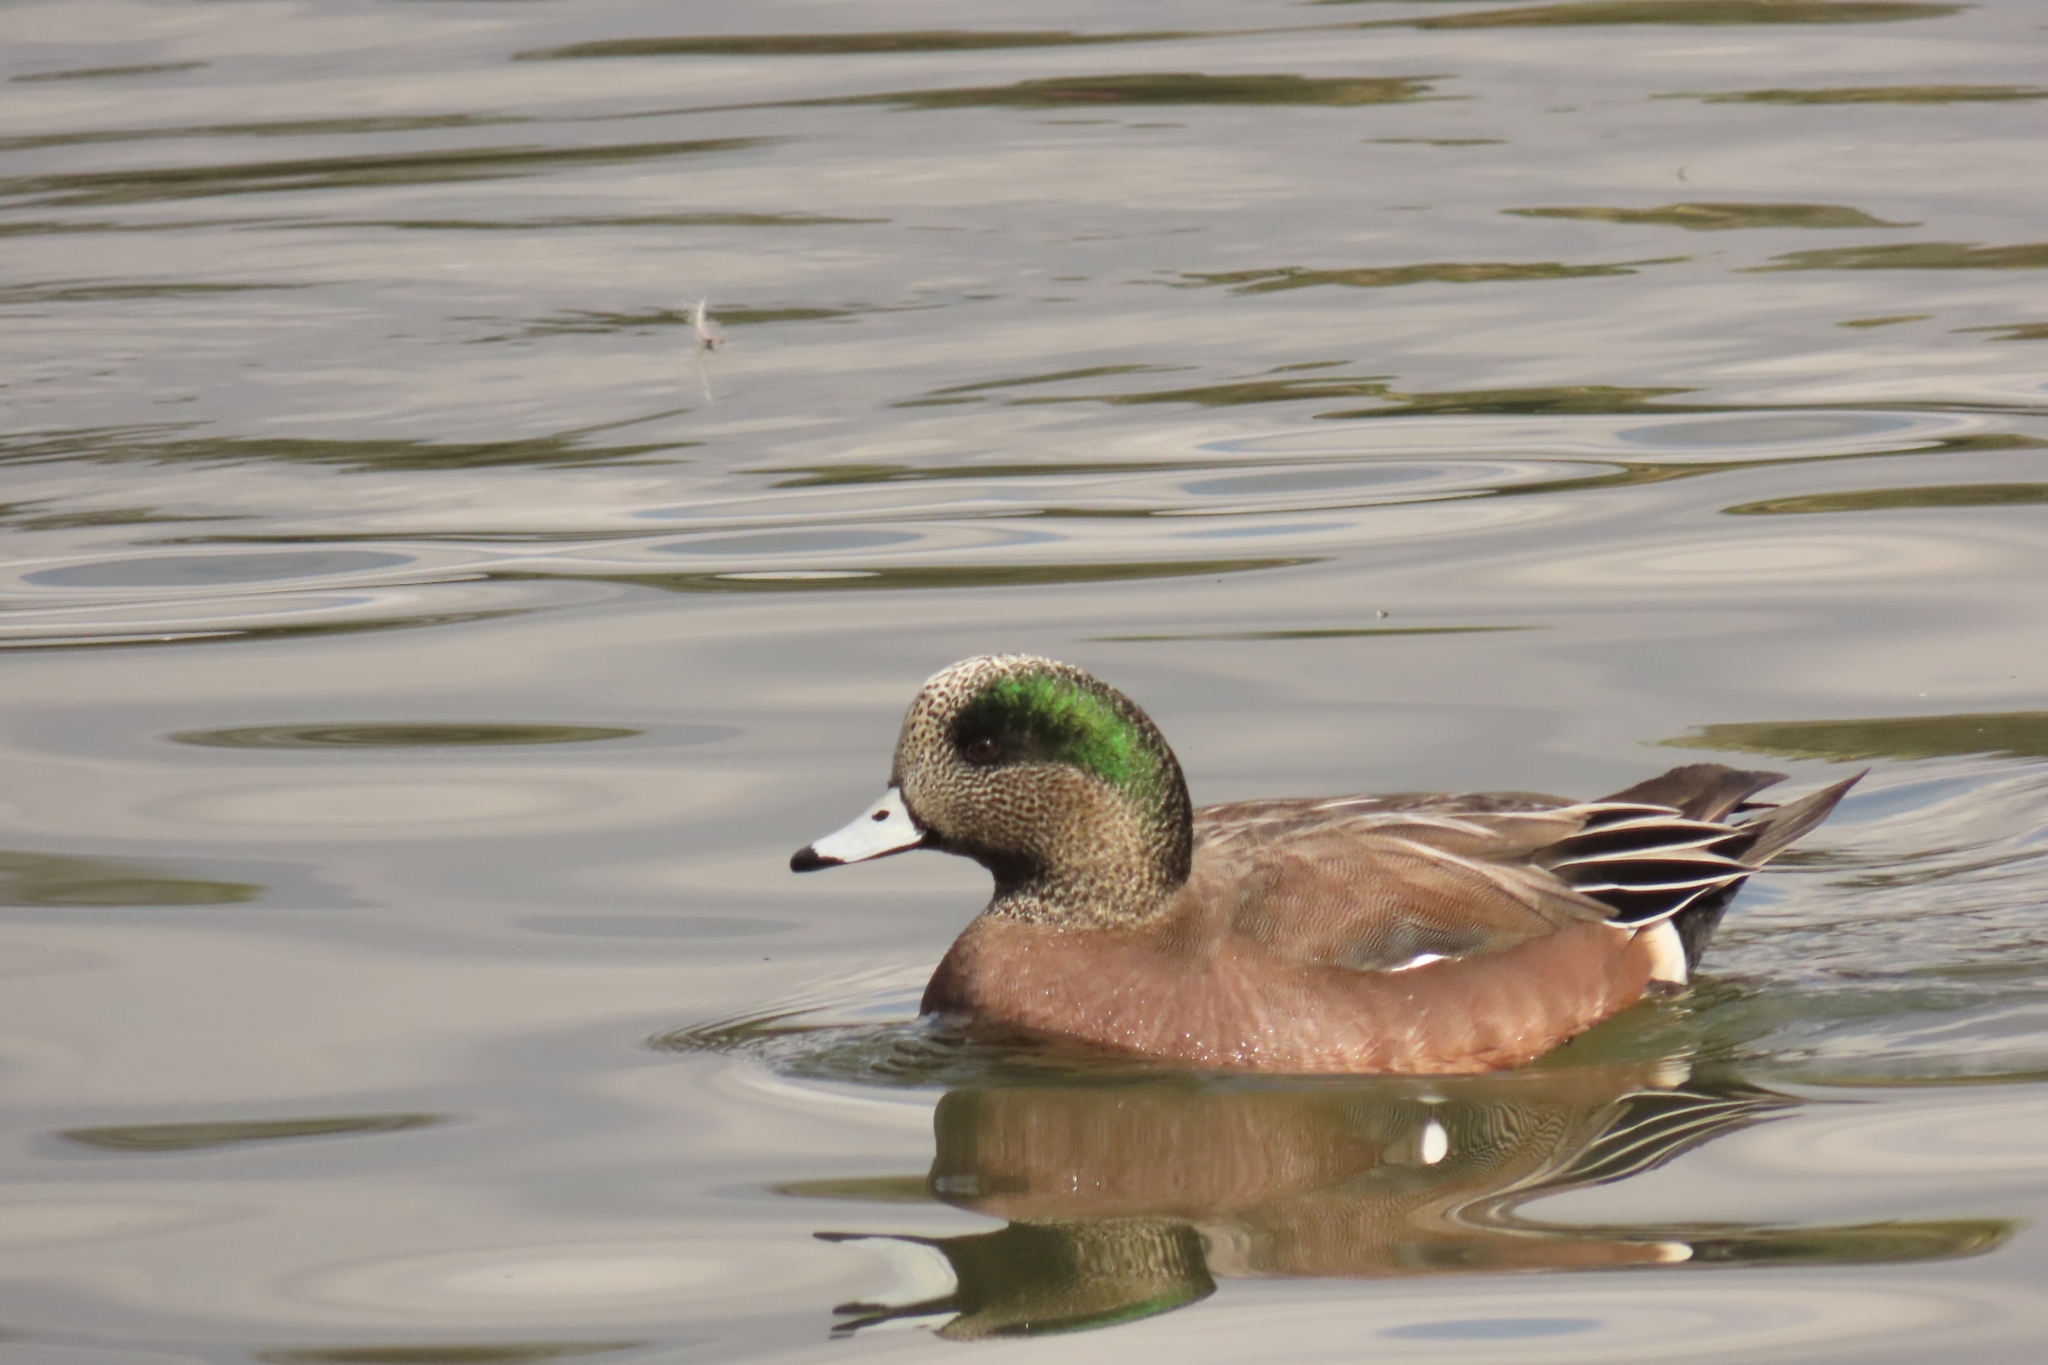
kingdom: Animalia
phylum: Chordata
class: Aves
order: Anseriformes
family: Anatidae
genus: Mareca
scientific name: Mareca americana
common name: American wigeon
